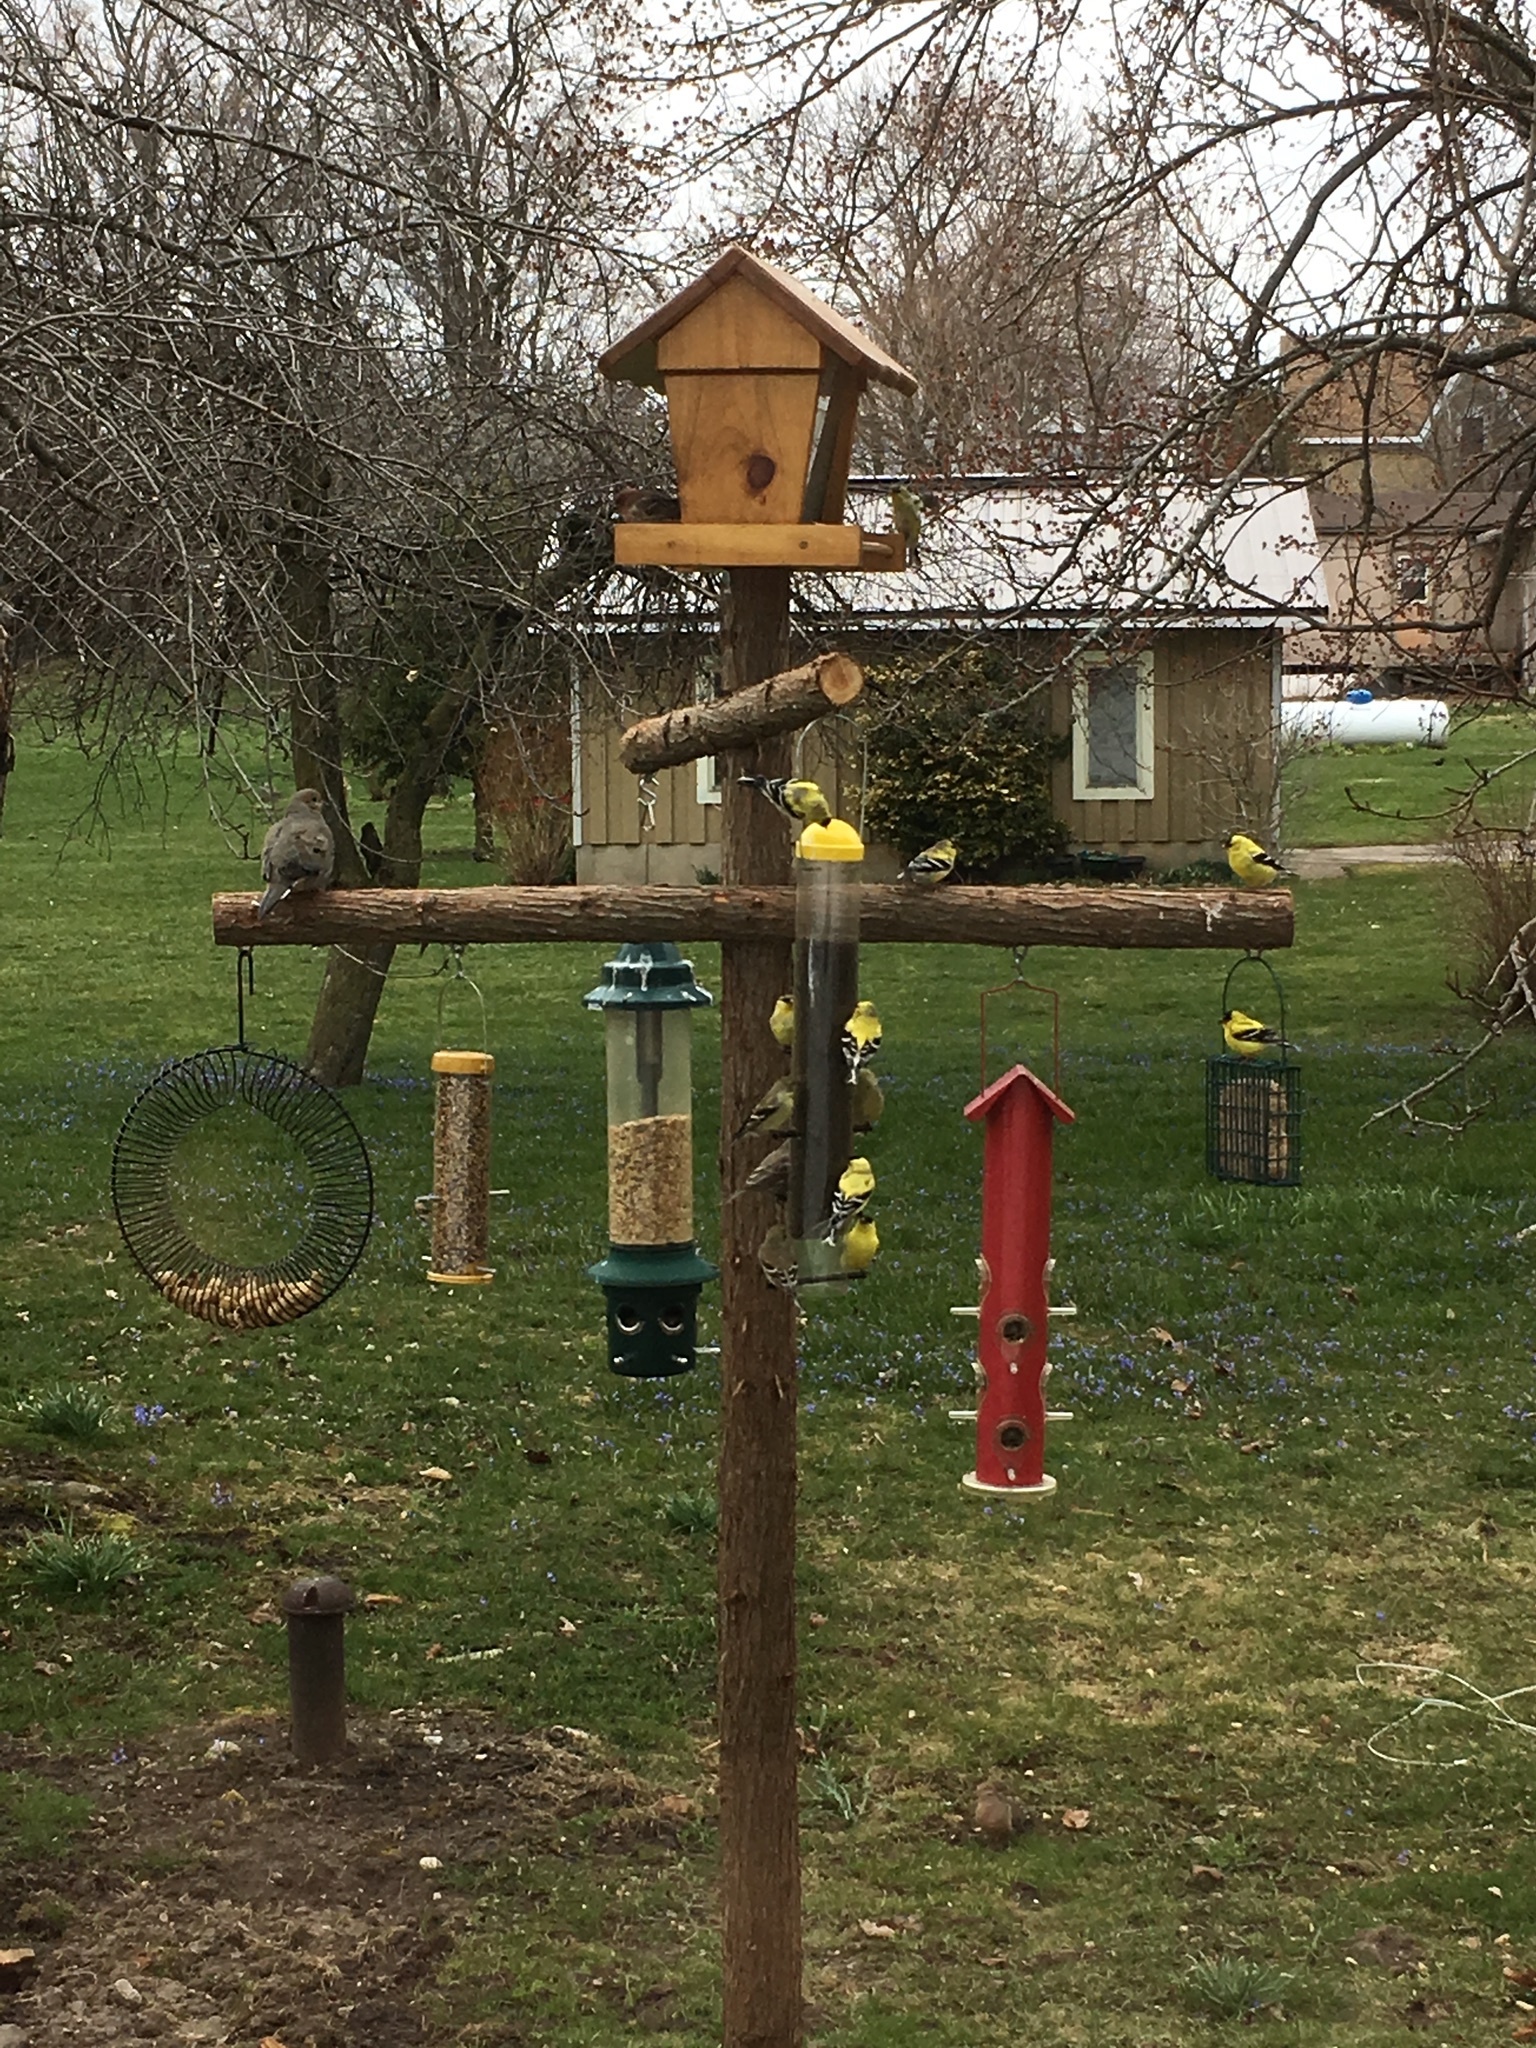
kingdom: Animalia
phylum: Chordata
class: Aves
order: Passeriformes
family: Fringillidae
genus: Spinus
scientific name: Spinus tristis
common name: American goldfinch
